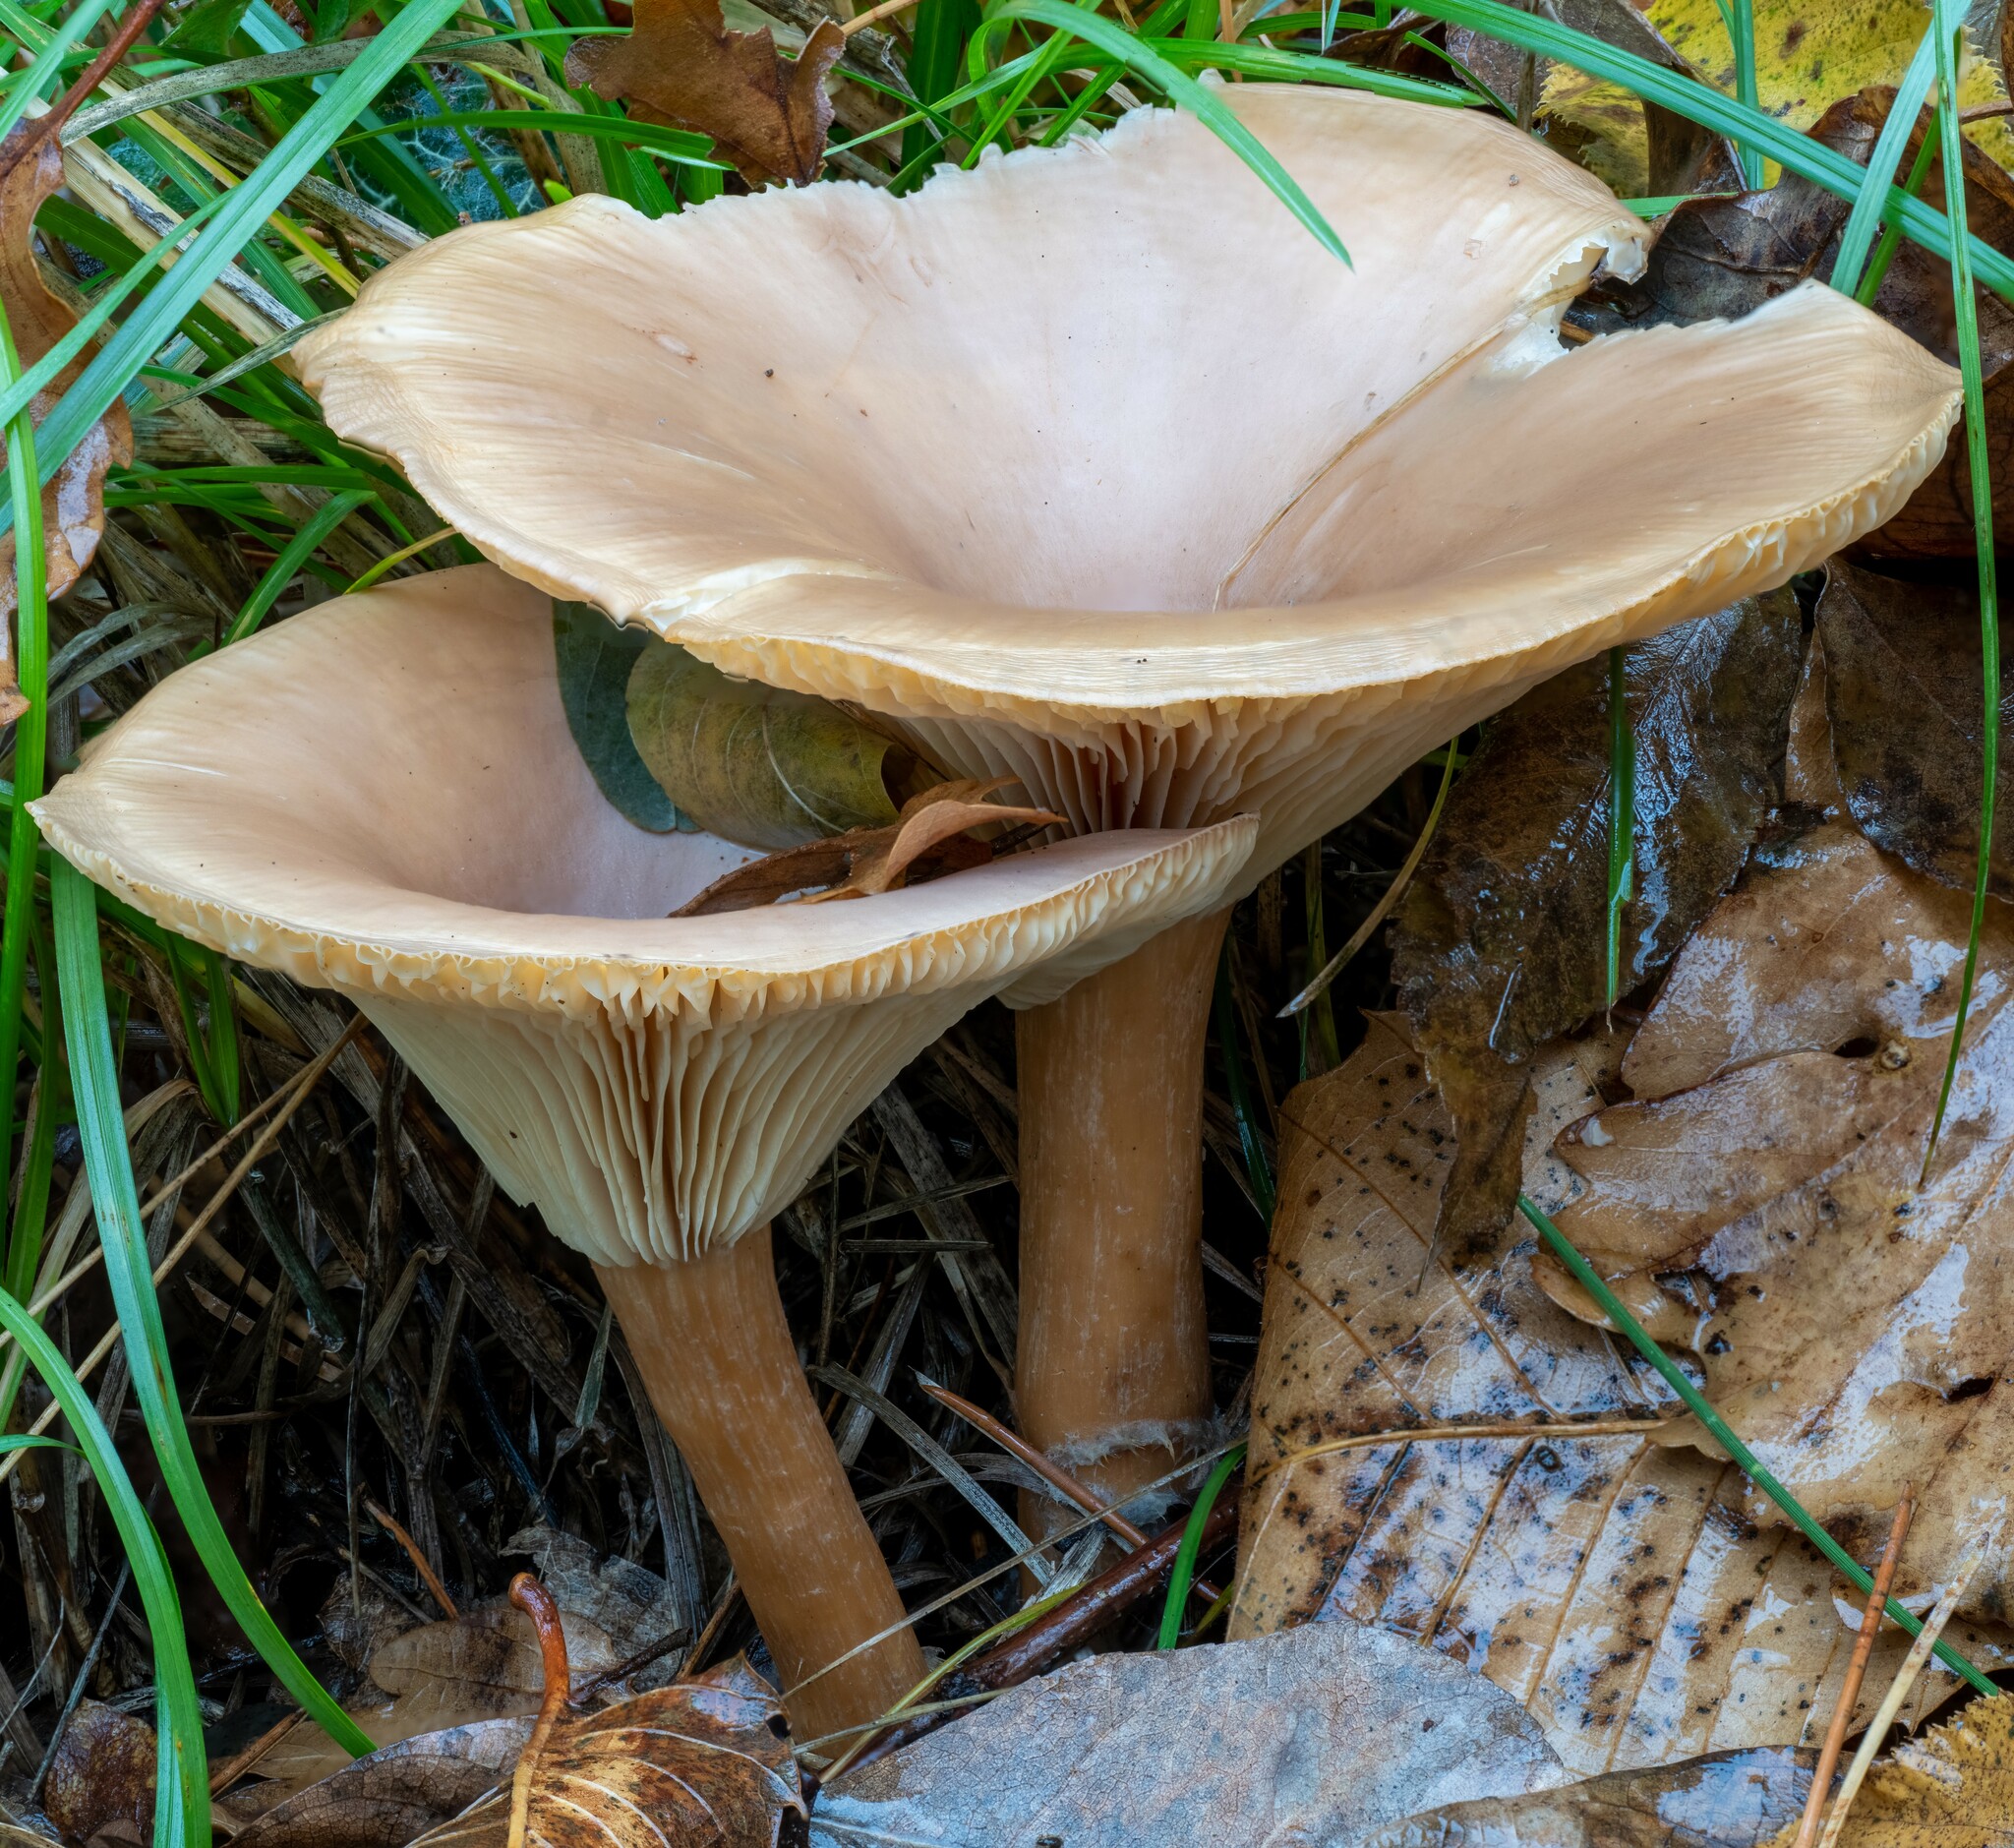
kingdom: Fungi
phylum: Basidiomycota
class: Agaricomycetes
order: Agaricales
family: Tricholomataceae
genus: Infundibulicybe
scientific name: Infundibulicybe geotropa
